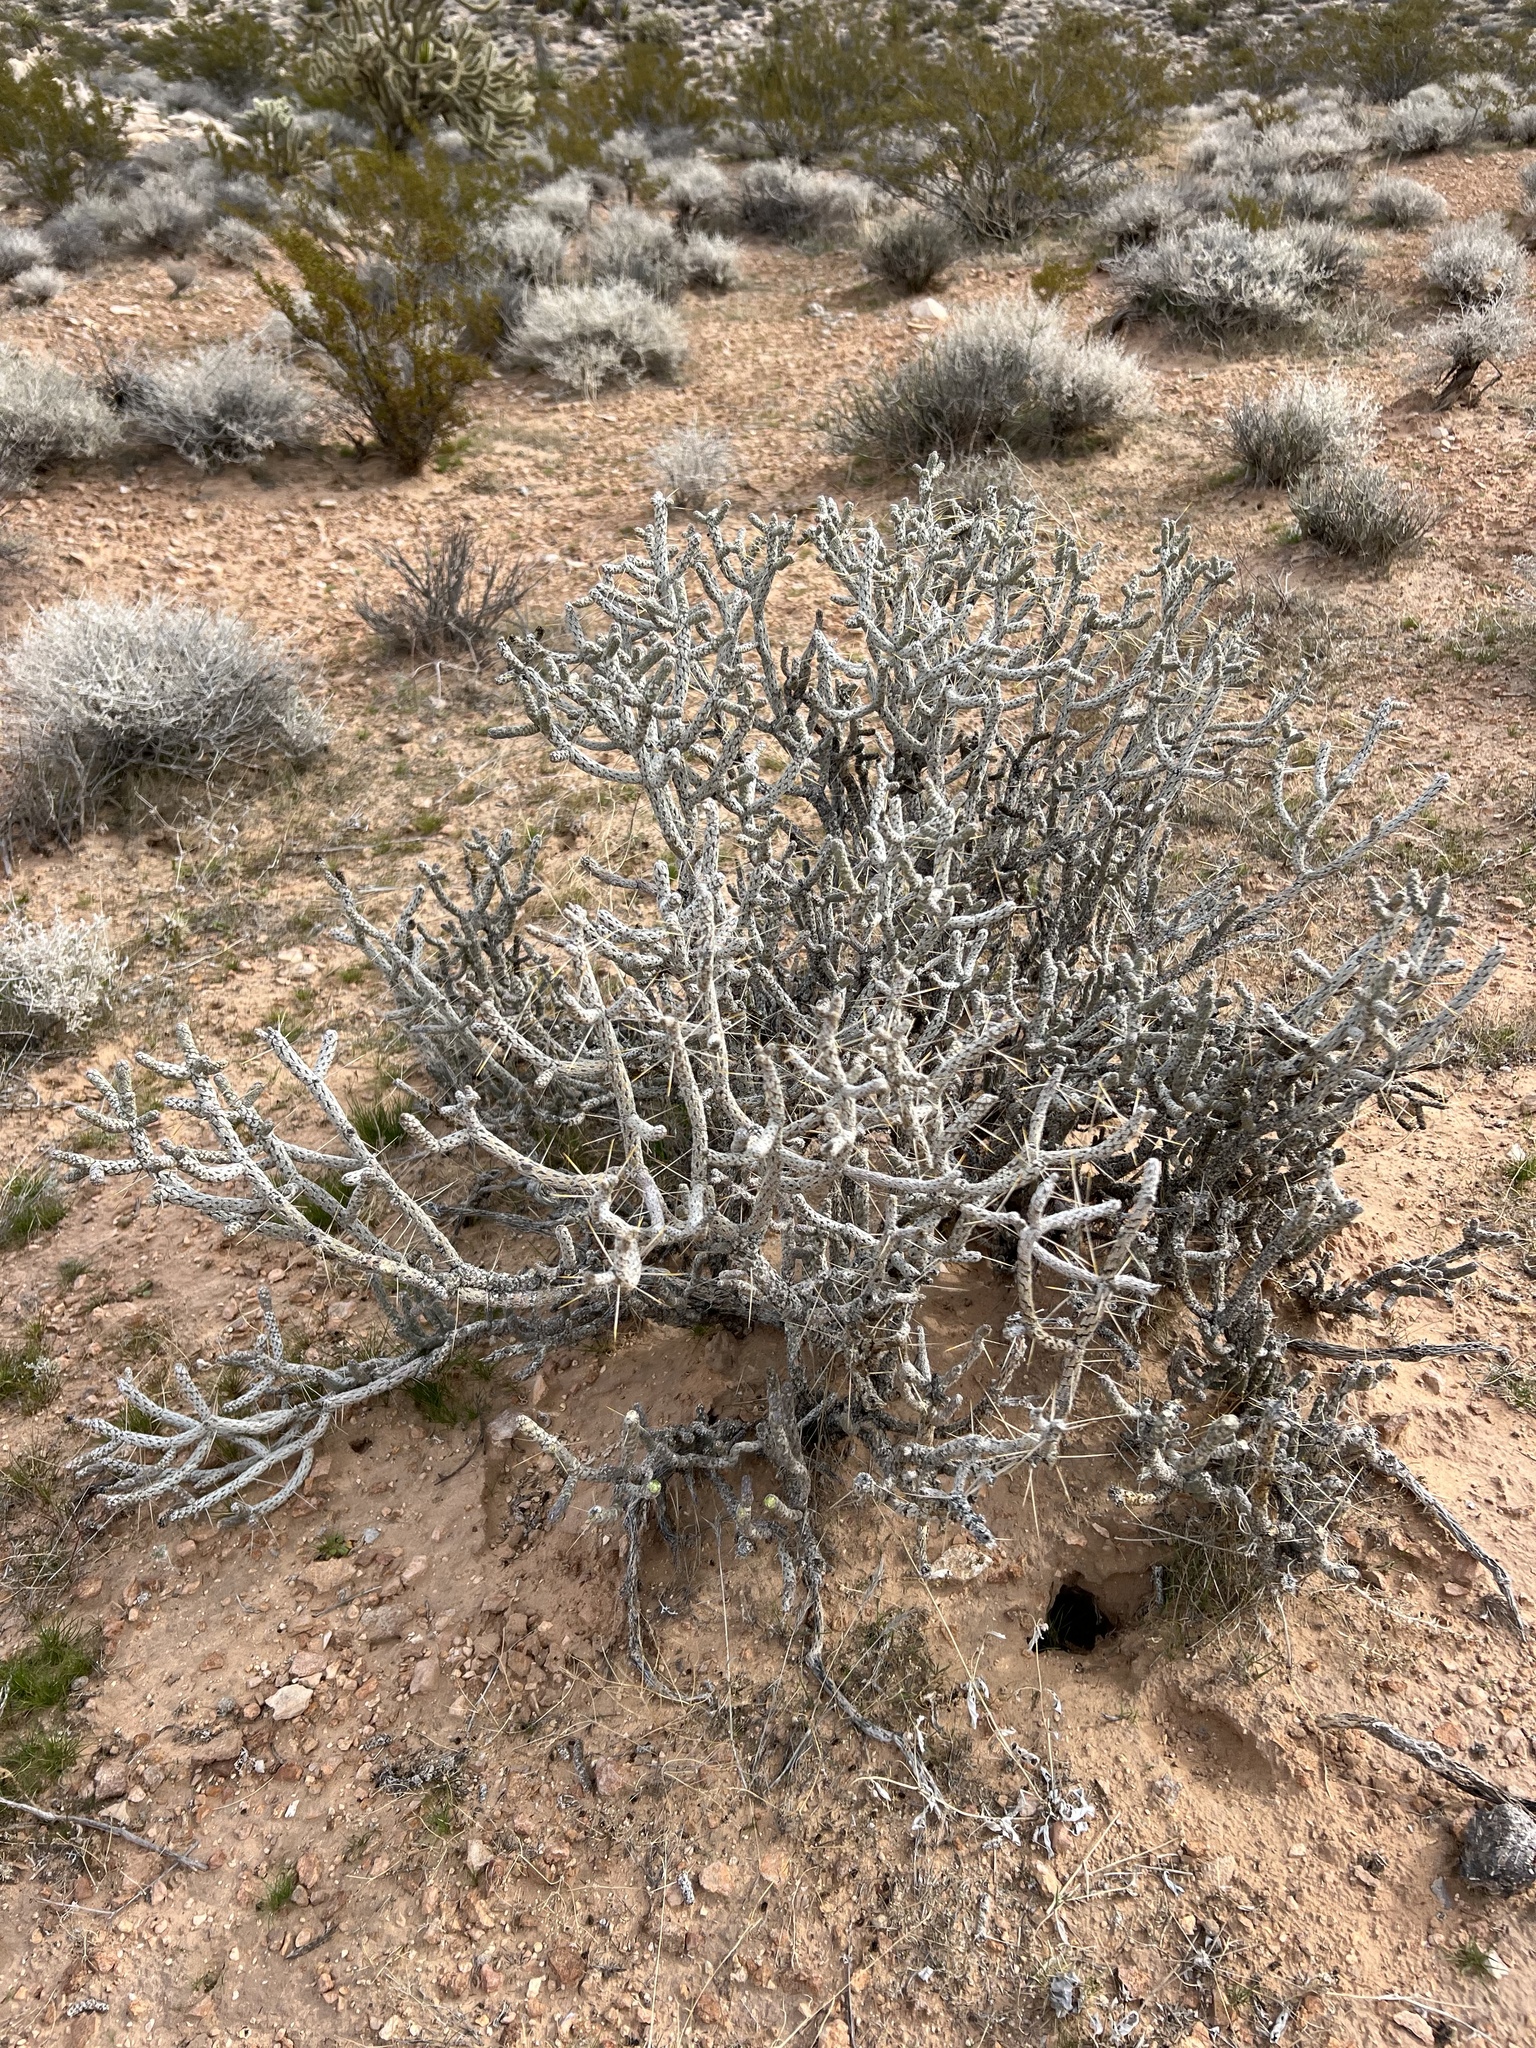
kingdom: Plantae
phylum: Tracheophyta
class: Magnoliopsida
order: Caryophyllales
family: Cactaceae
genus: Cylindropuntia
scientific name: Cylindropuntia ramosissima
